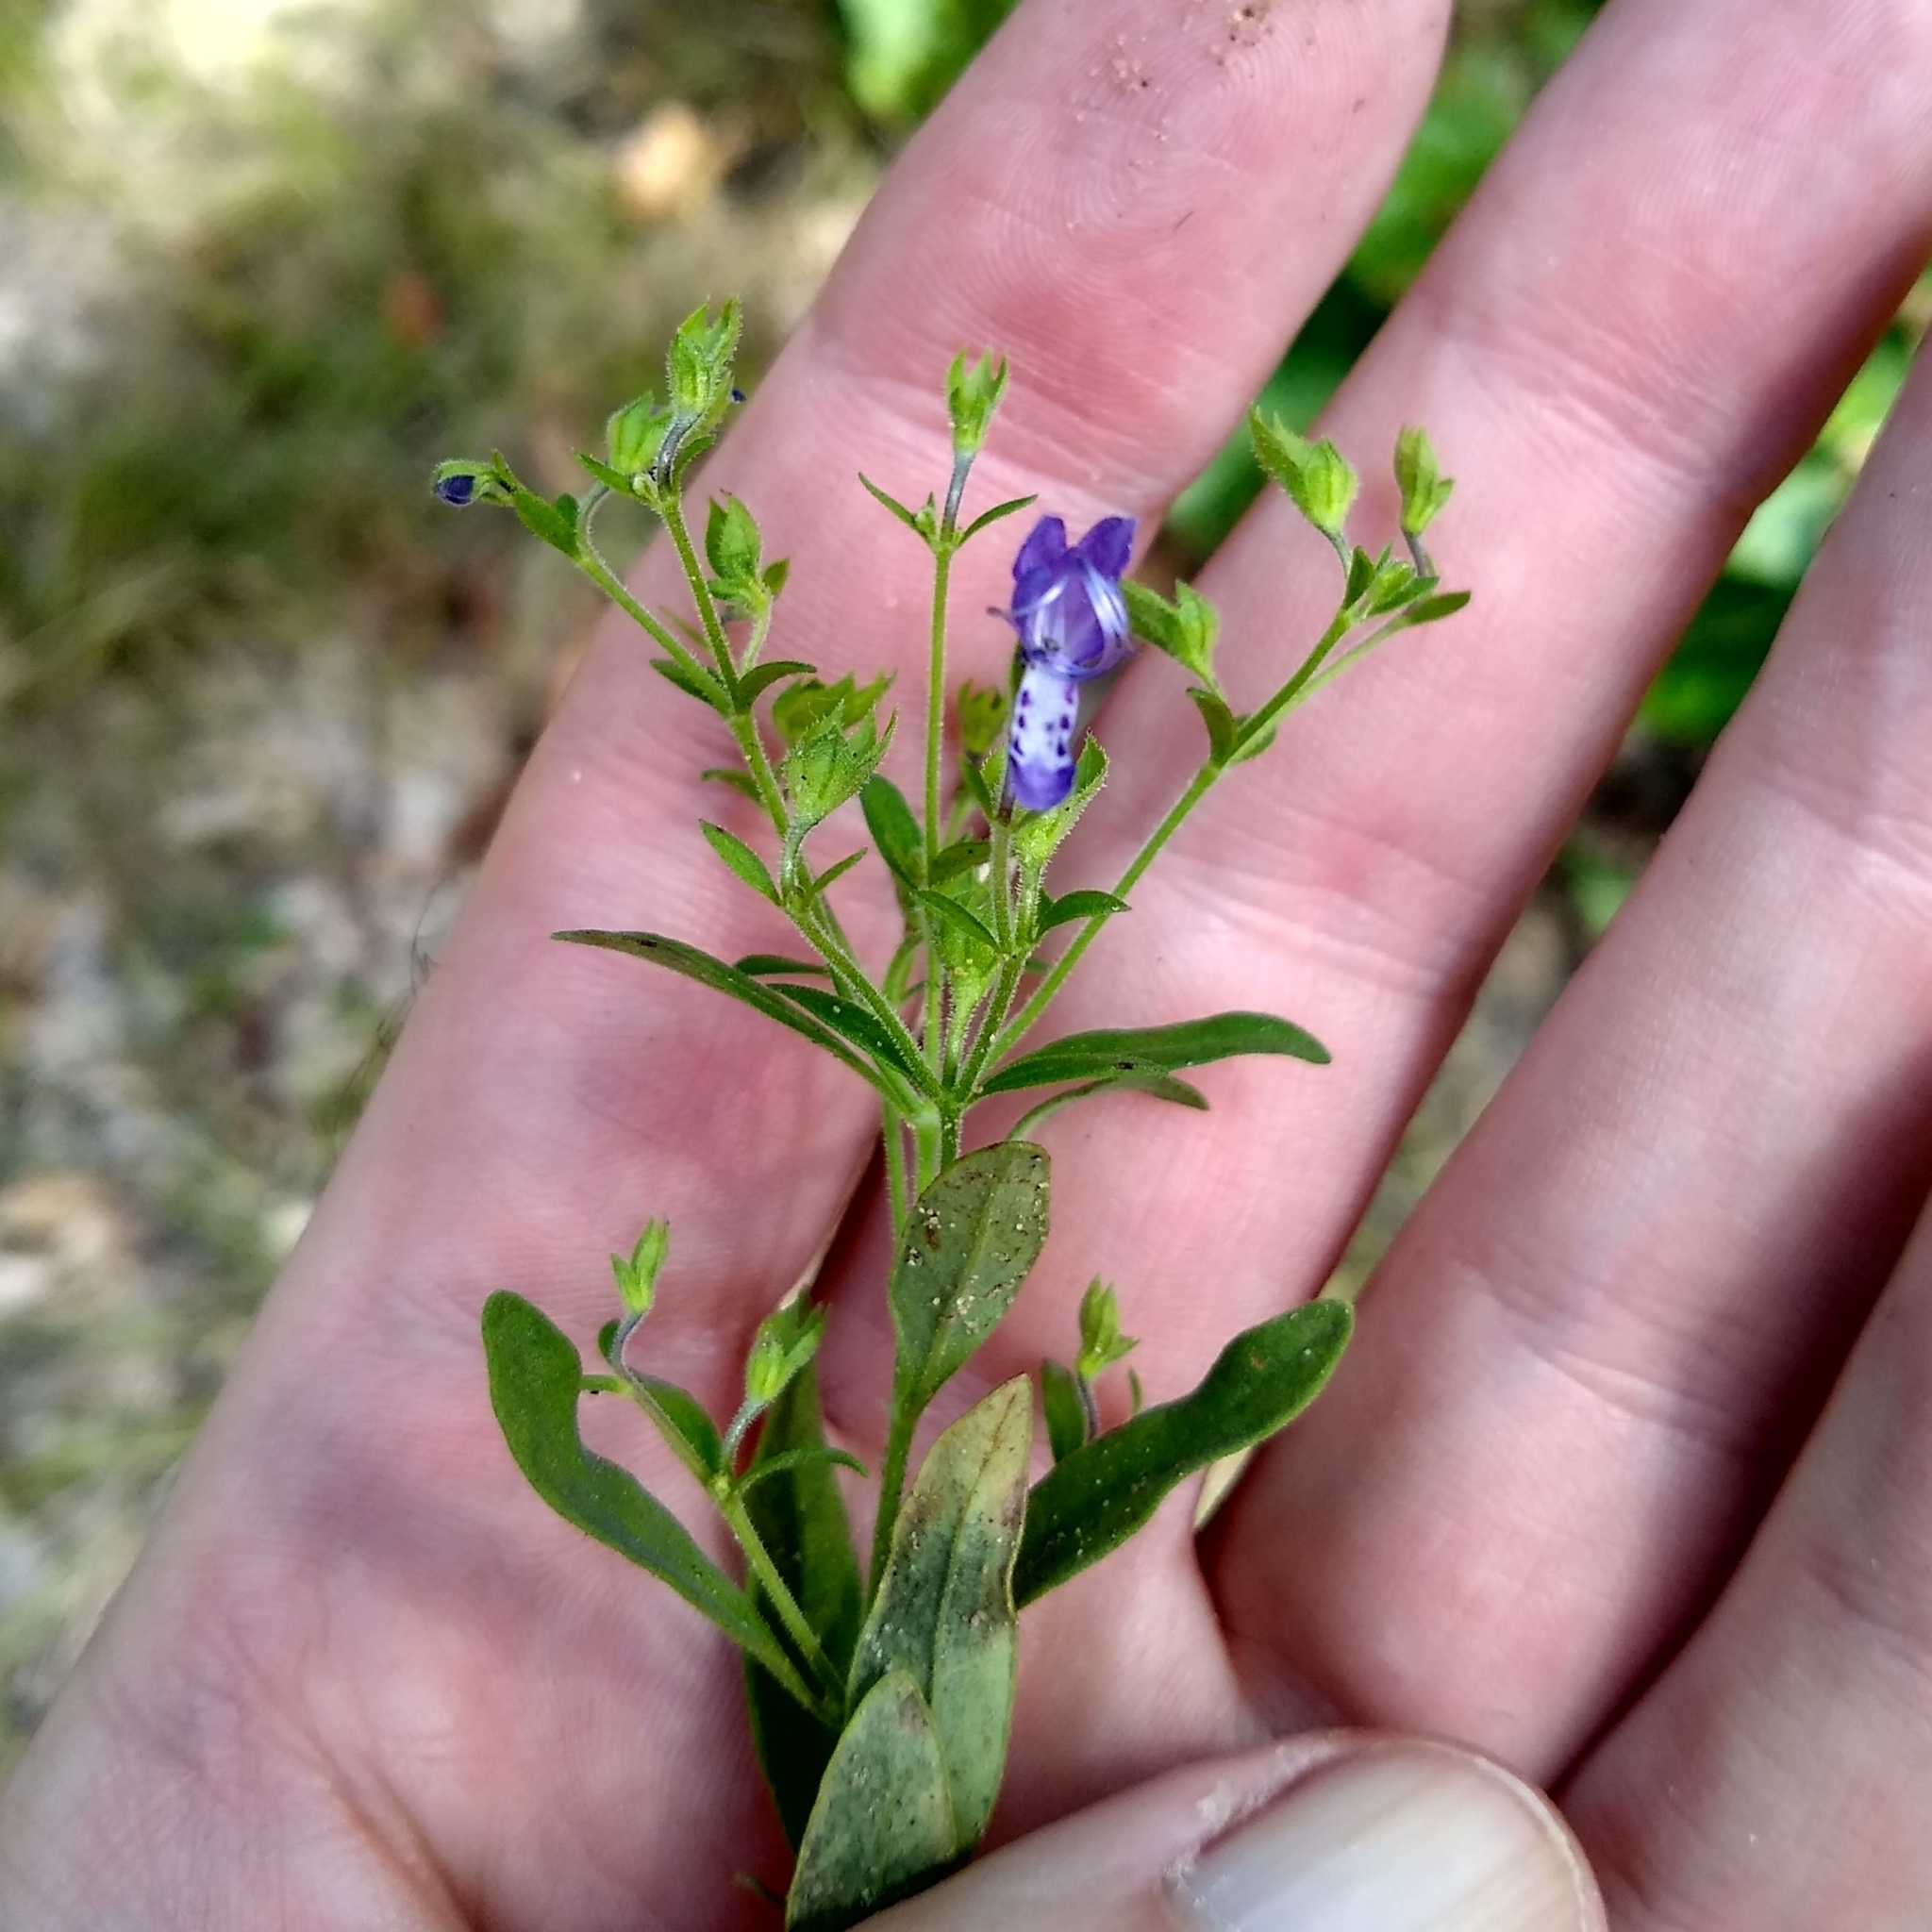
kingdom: Plantae
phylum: Tracheophyta
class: Magnoliopsida
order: Lamiales
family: Lamiaceae
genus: Trichostema
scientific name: Trichostema dichotomum
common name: Bastard pennyroyal
